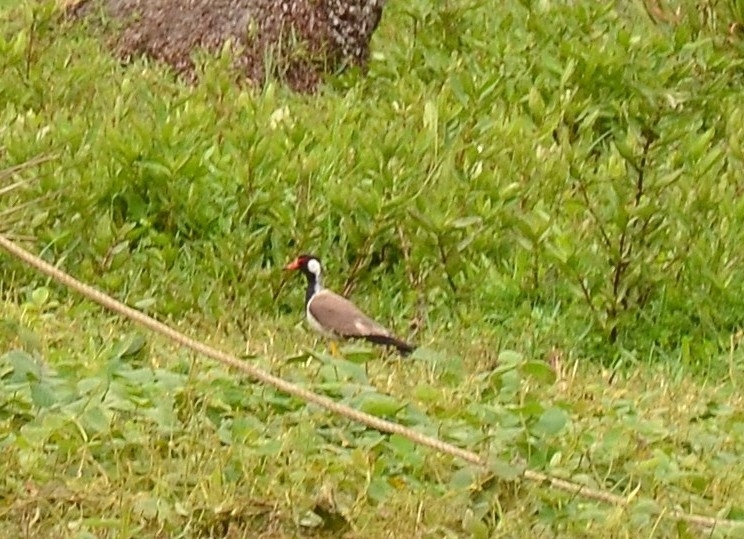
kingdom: Animalia
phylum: Chordata
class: Aves
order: Charadriiformes
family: Charadriidae
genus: Vanellus
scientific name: Vanellus indicus
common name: Red-wattled lapwing
